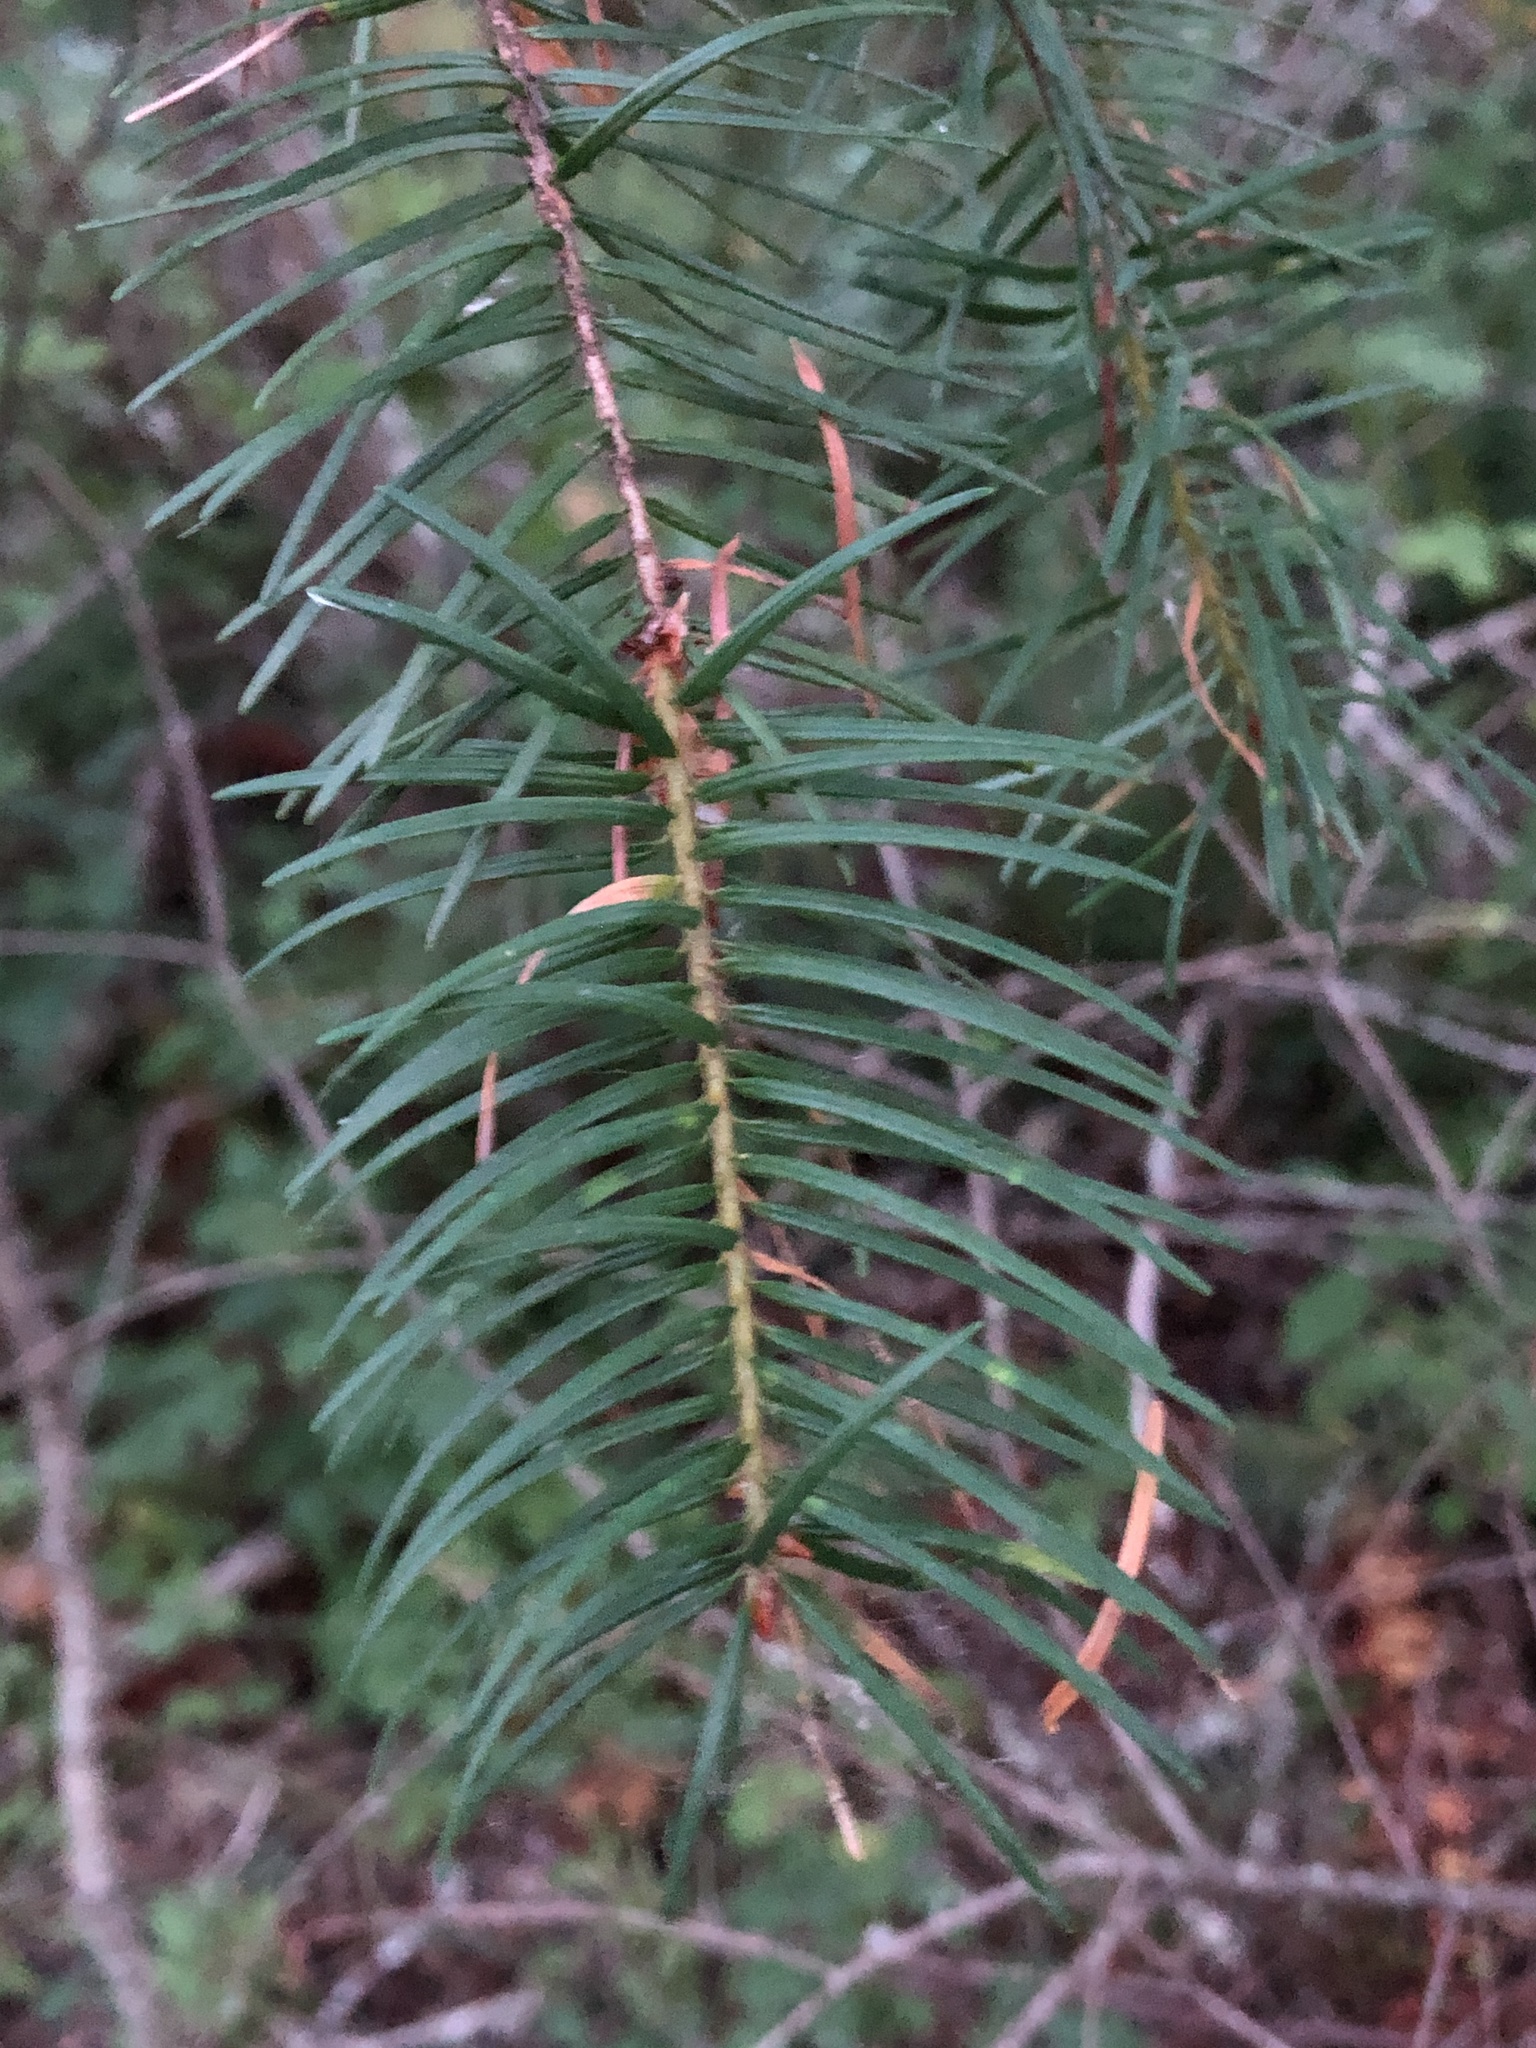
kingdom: Plantae
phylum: Tracheophyta
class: Pinopsida
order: Pinales
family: Pinaceae
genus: Pseudotsuga
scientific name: Pseudotsuga menziesii
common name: Douglas fir
